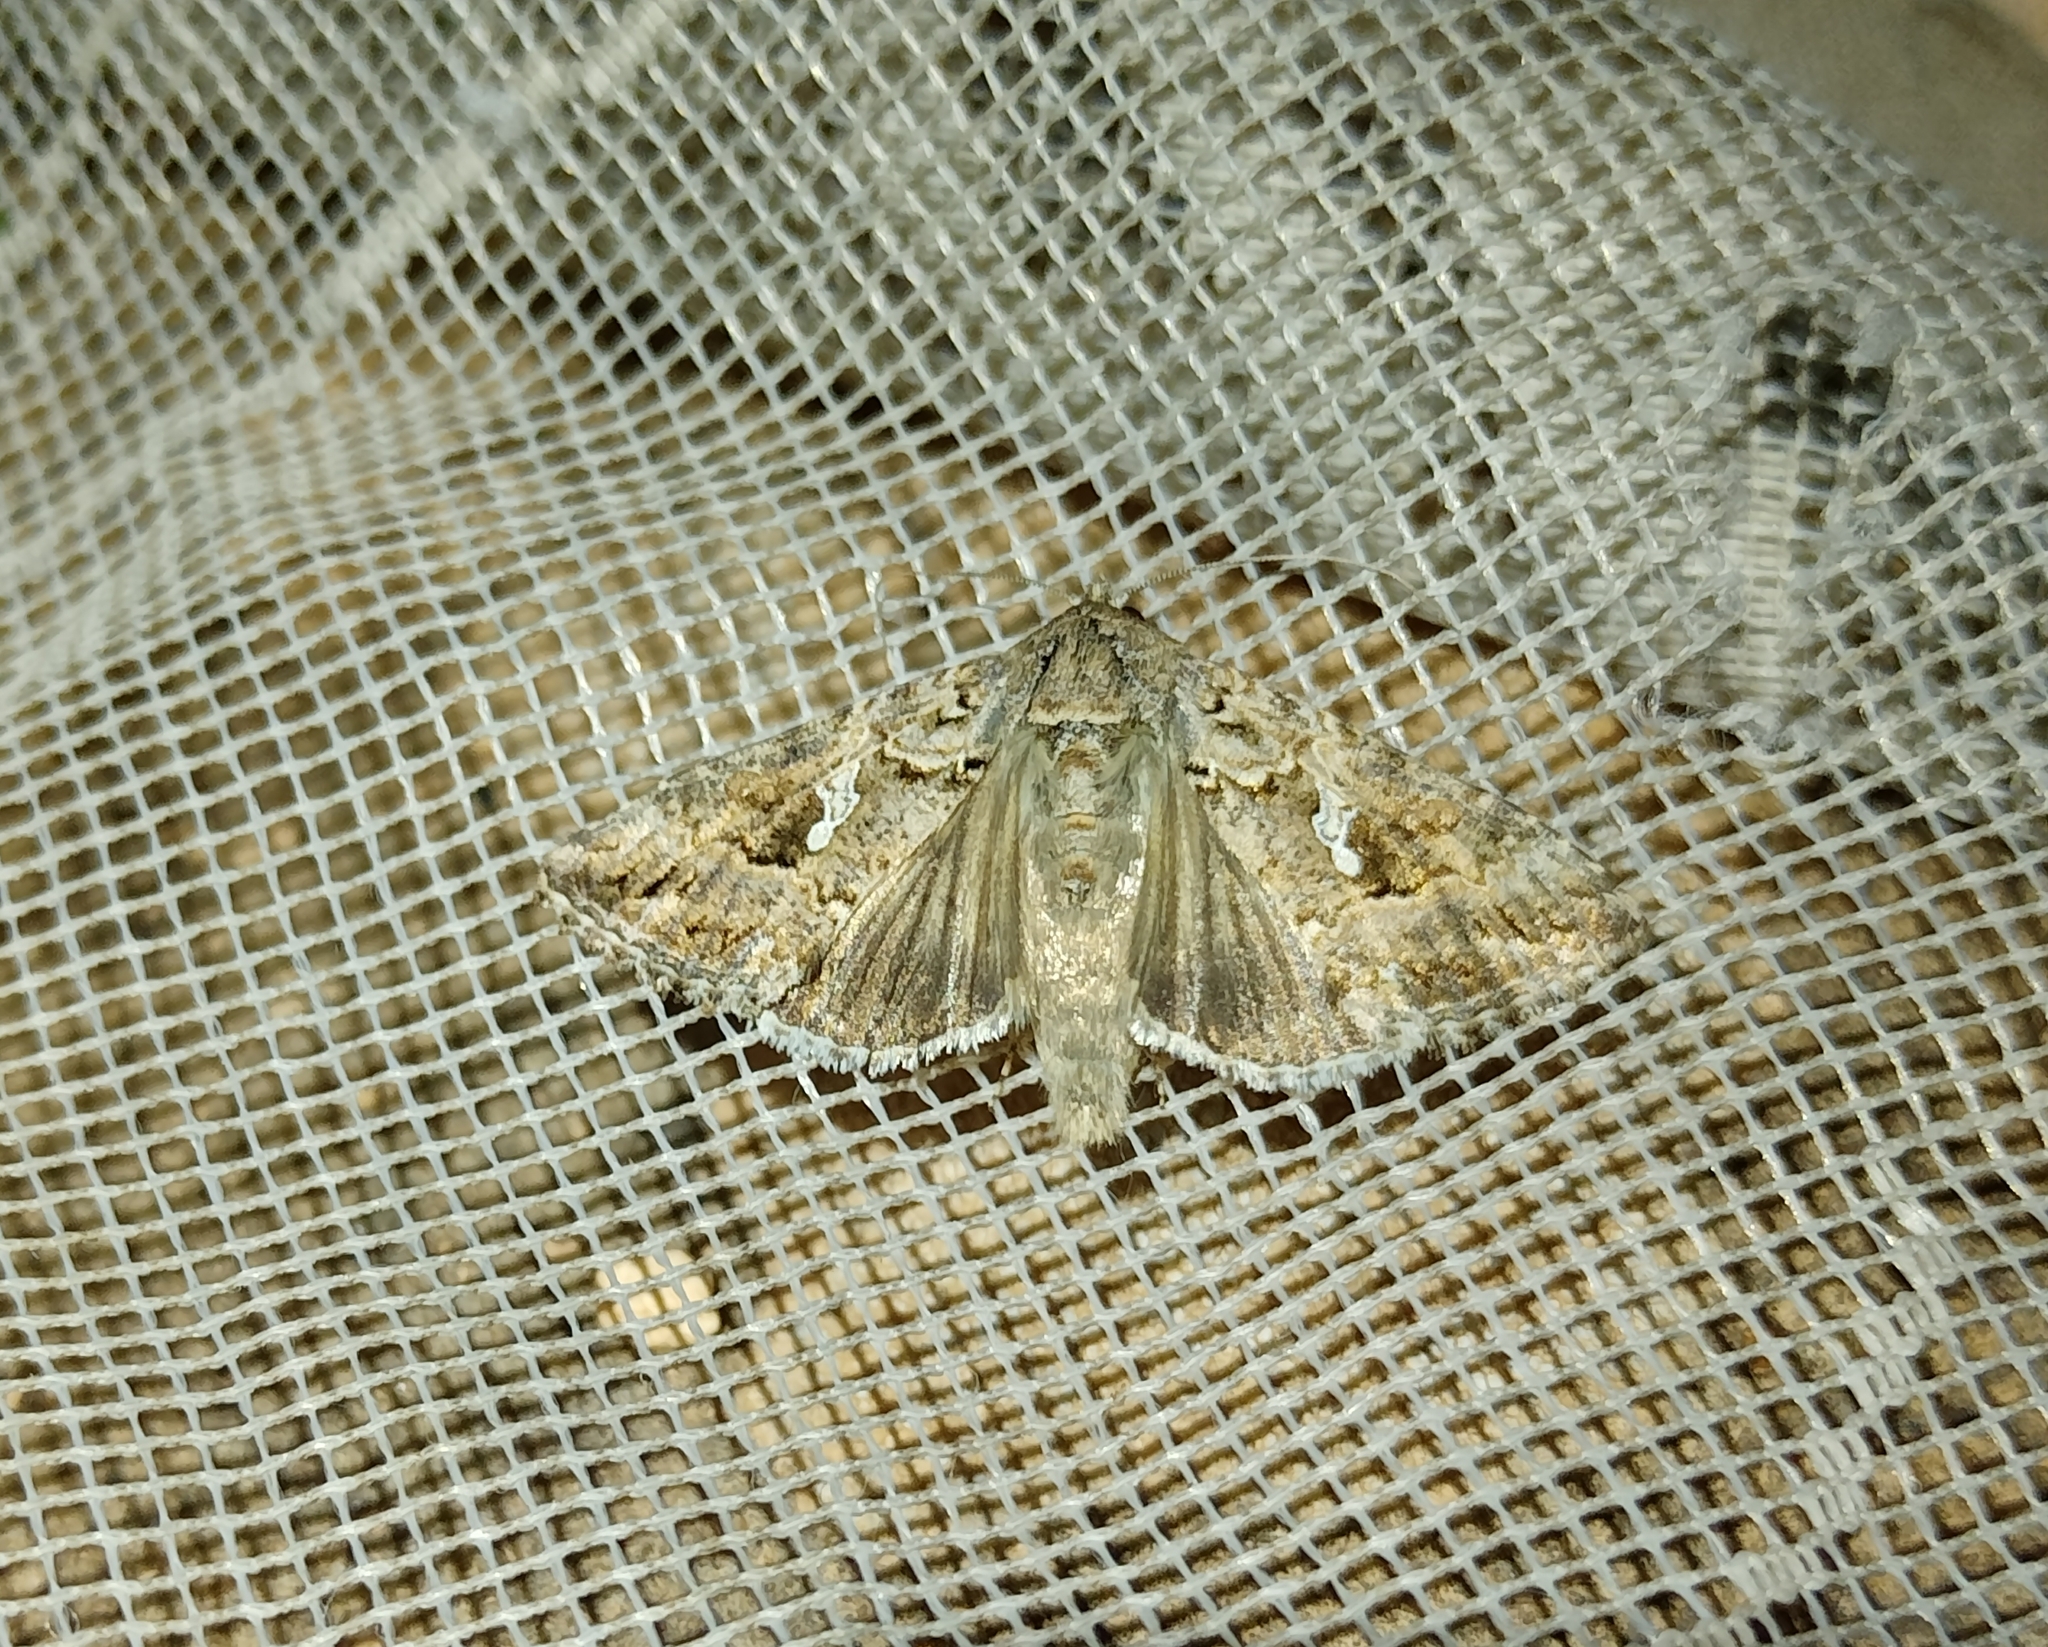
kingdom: Animalia
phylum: Arthropoda
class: Insecta
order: Lepidoptera
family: Noctuidae
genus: Trichoplusia
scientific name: Trichoplusia ni
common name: Ni moth
